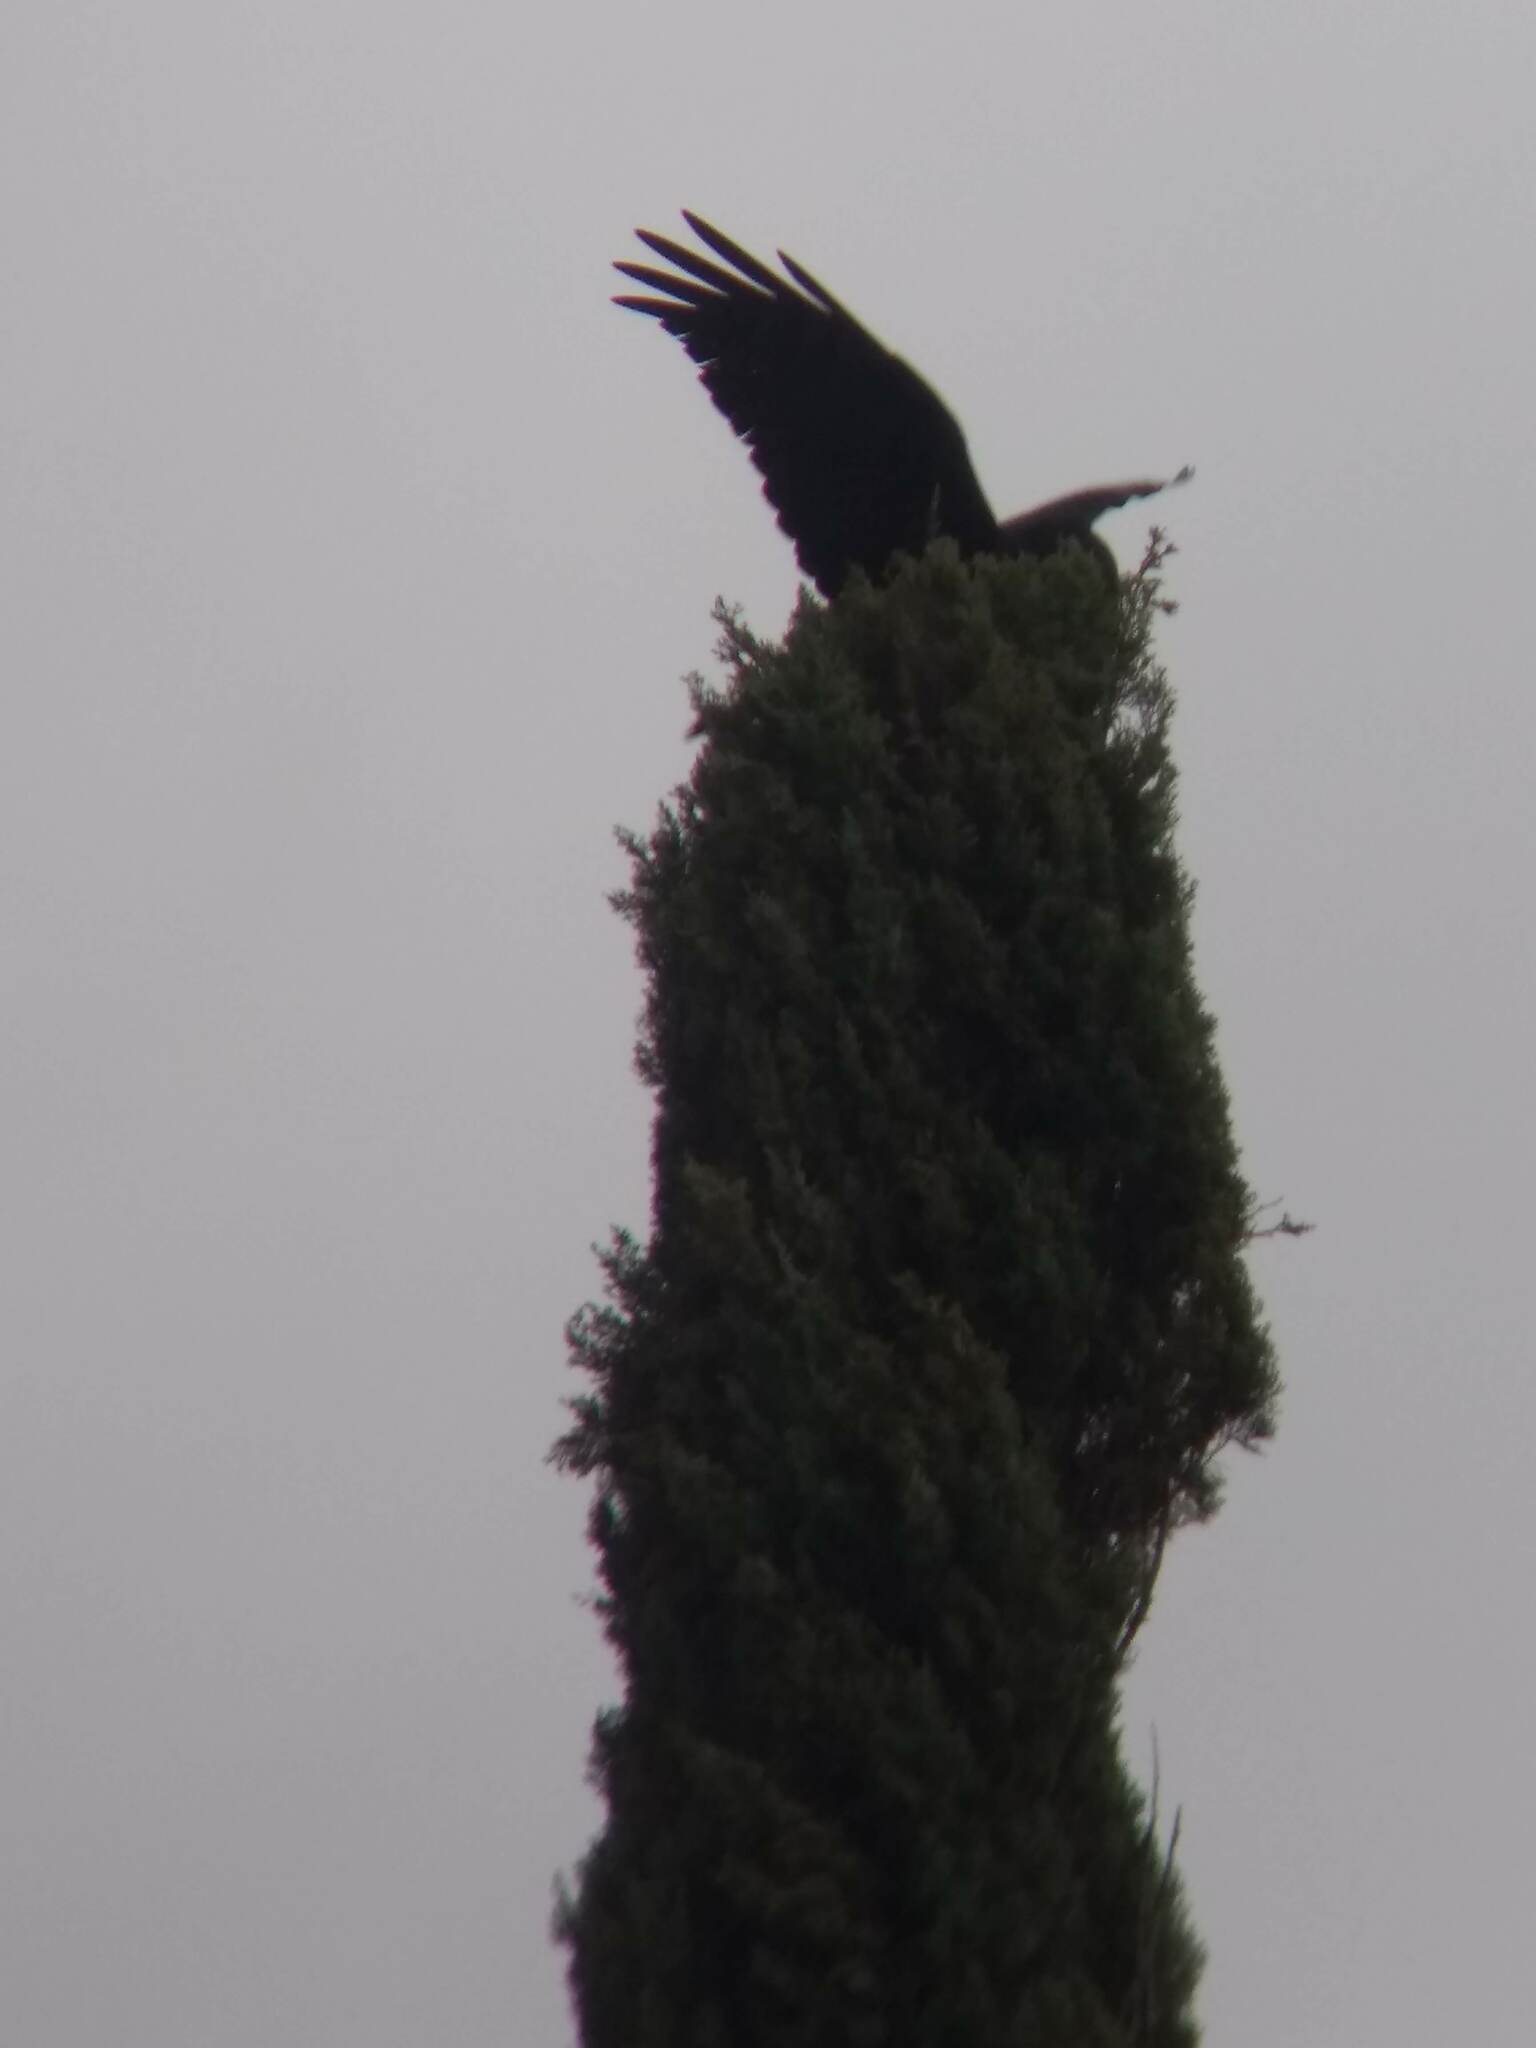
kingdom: Animalia
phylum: Chordata
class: Aves
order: Passeriformes
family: Corvidae
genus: Corvus
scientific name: Corvus brachyrhynchos
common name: American crow
